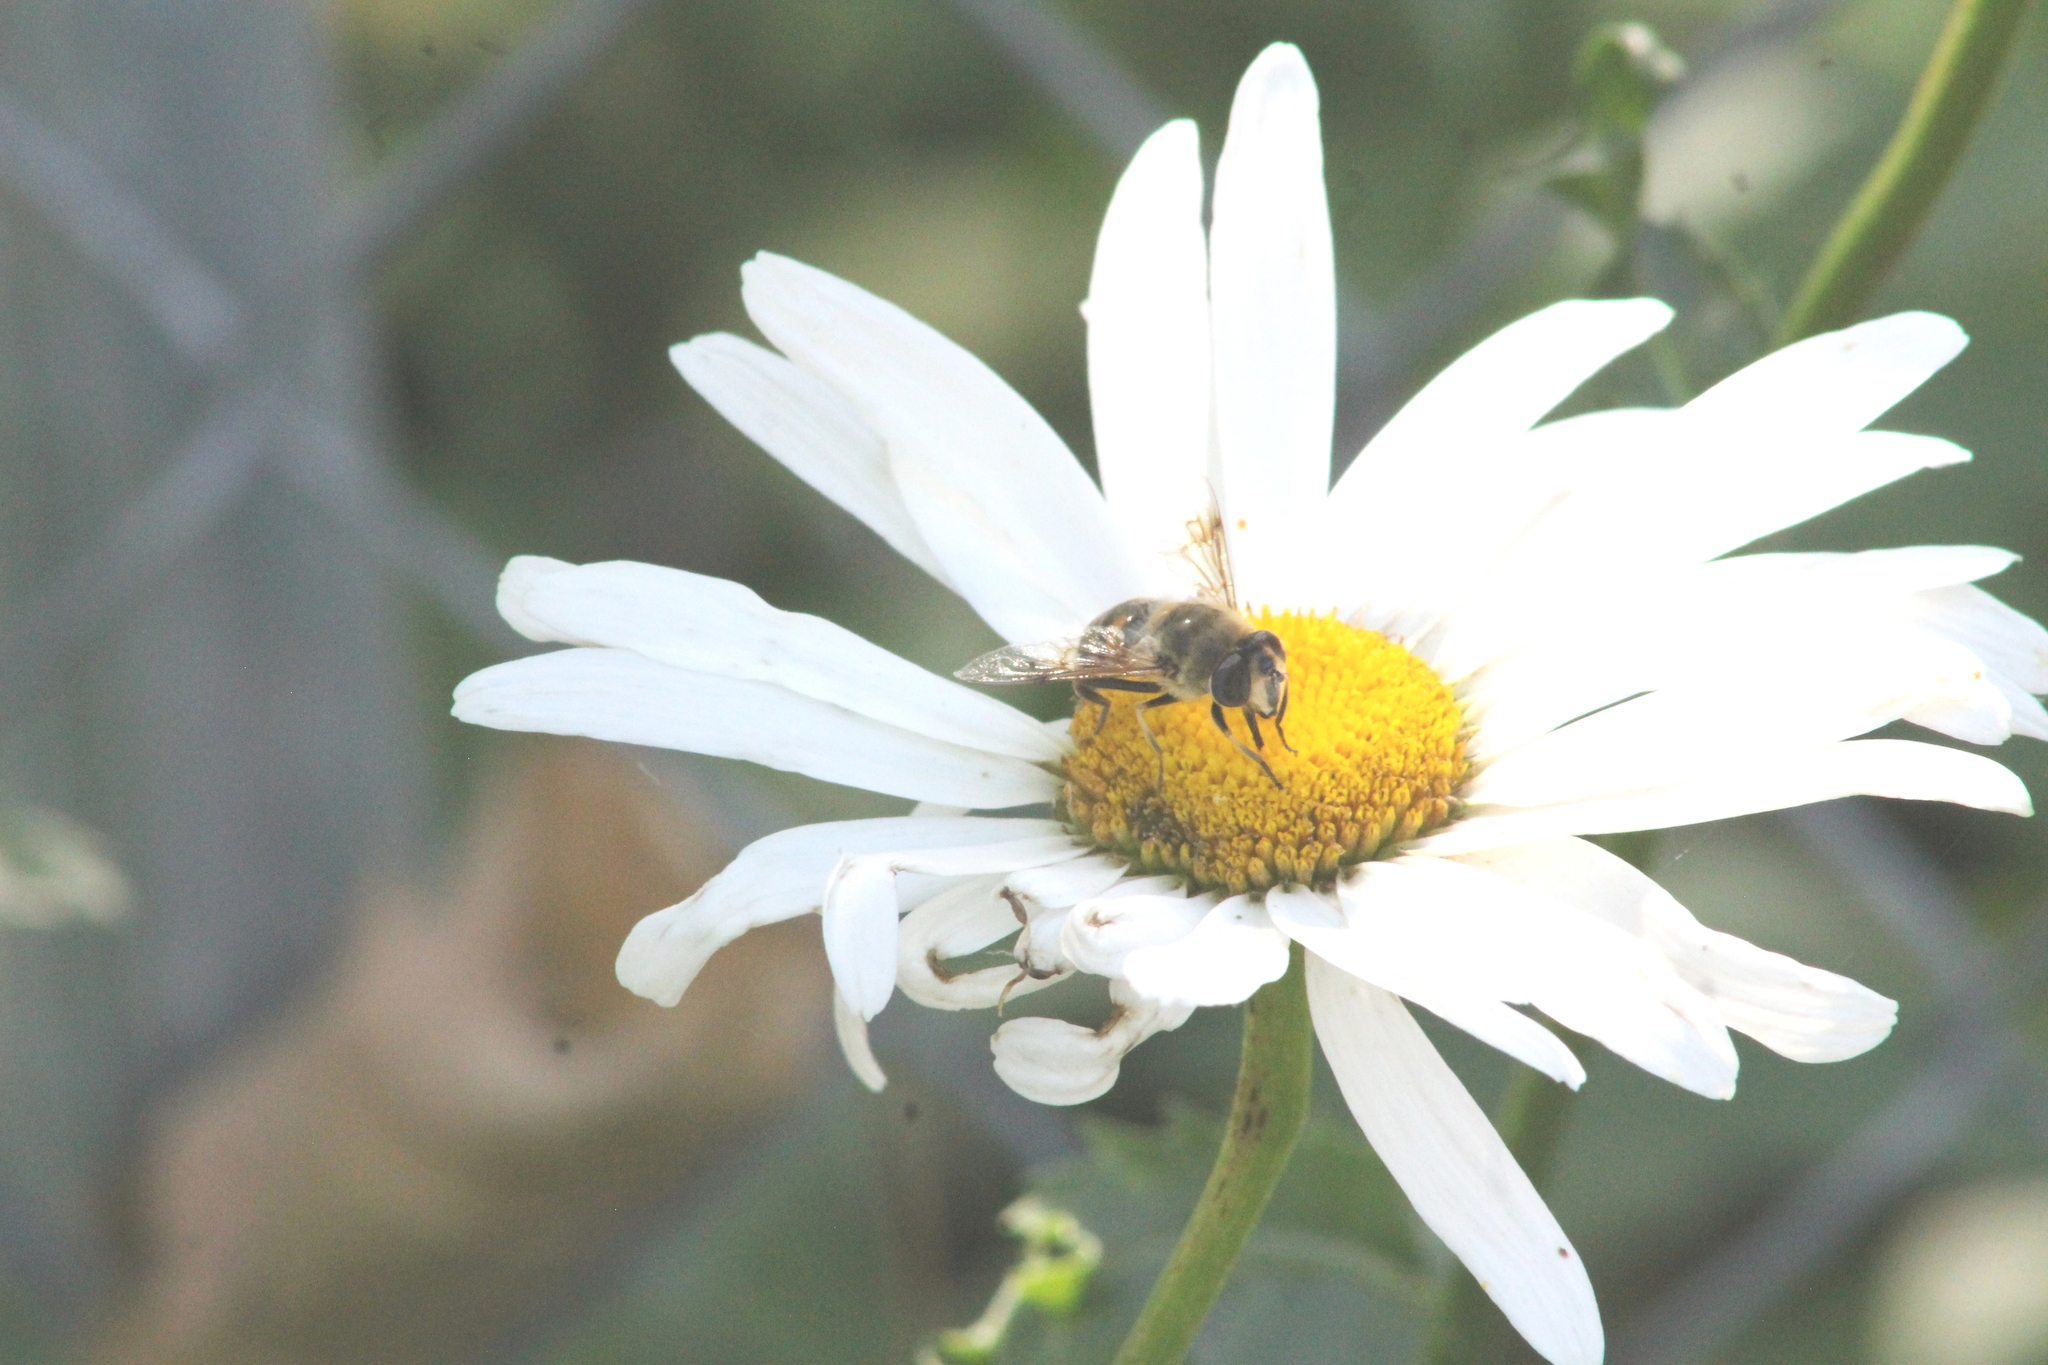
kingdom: Animalia
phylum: Arthropoda
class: Insecta
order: Diptera
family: Syrphidae
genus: Eristalis
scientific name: Eristalis tenax
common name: Drone fly
